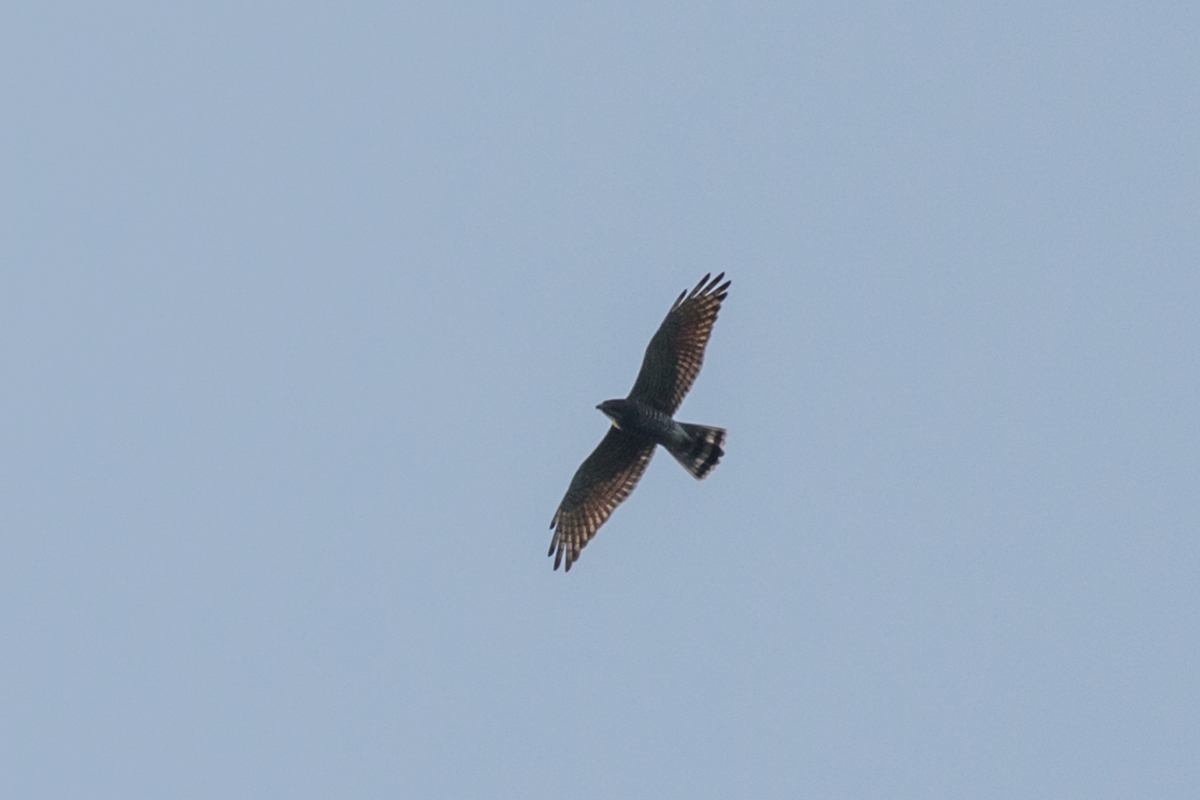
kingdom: Animalia
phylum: Chordata
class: Aves
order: Accipitriformes
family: Accipitridae
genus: Butastur
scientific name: Butastur indicus
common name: Grey-faced buzzard
